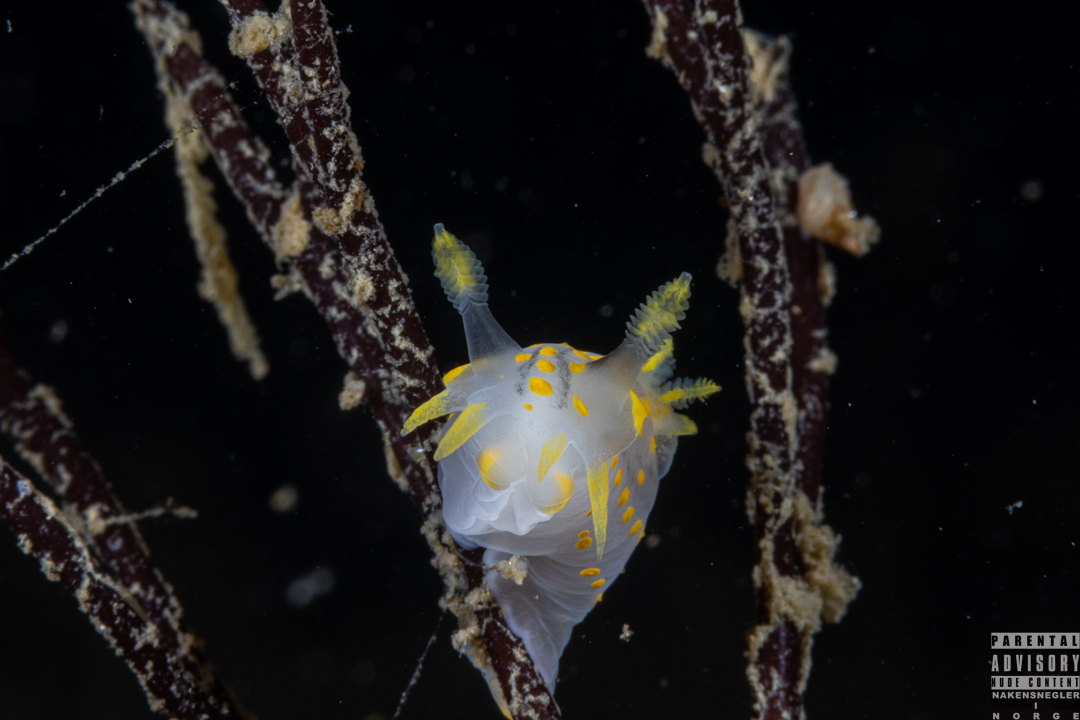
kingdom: Animalia
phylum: Mollusca
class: Gastropoda
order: Nudibranchia
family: Polyceridae
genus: Polycera
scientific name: Polycera quadrilineata
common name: Four-striped polycera
